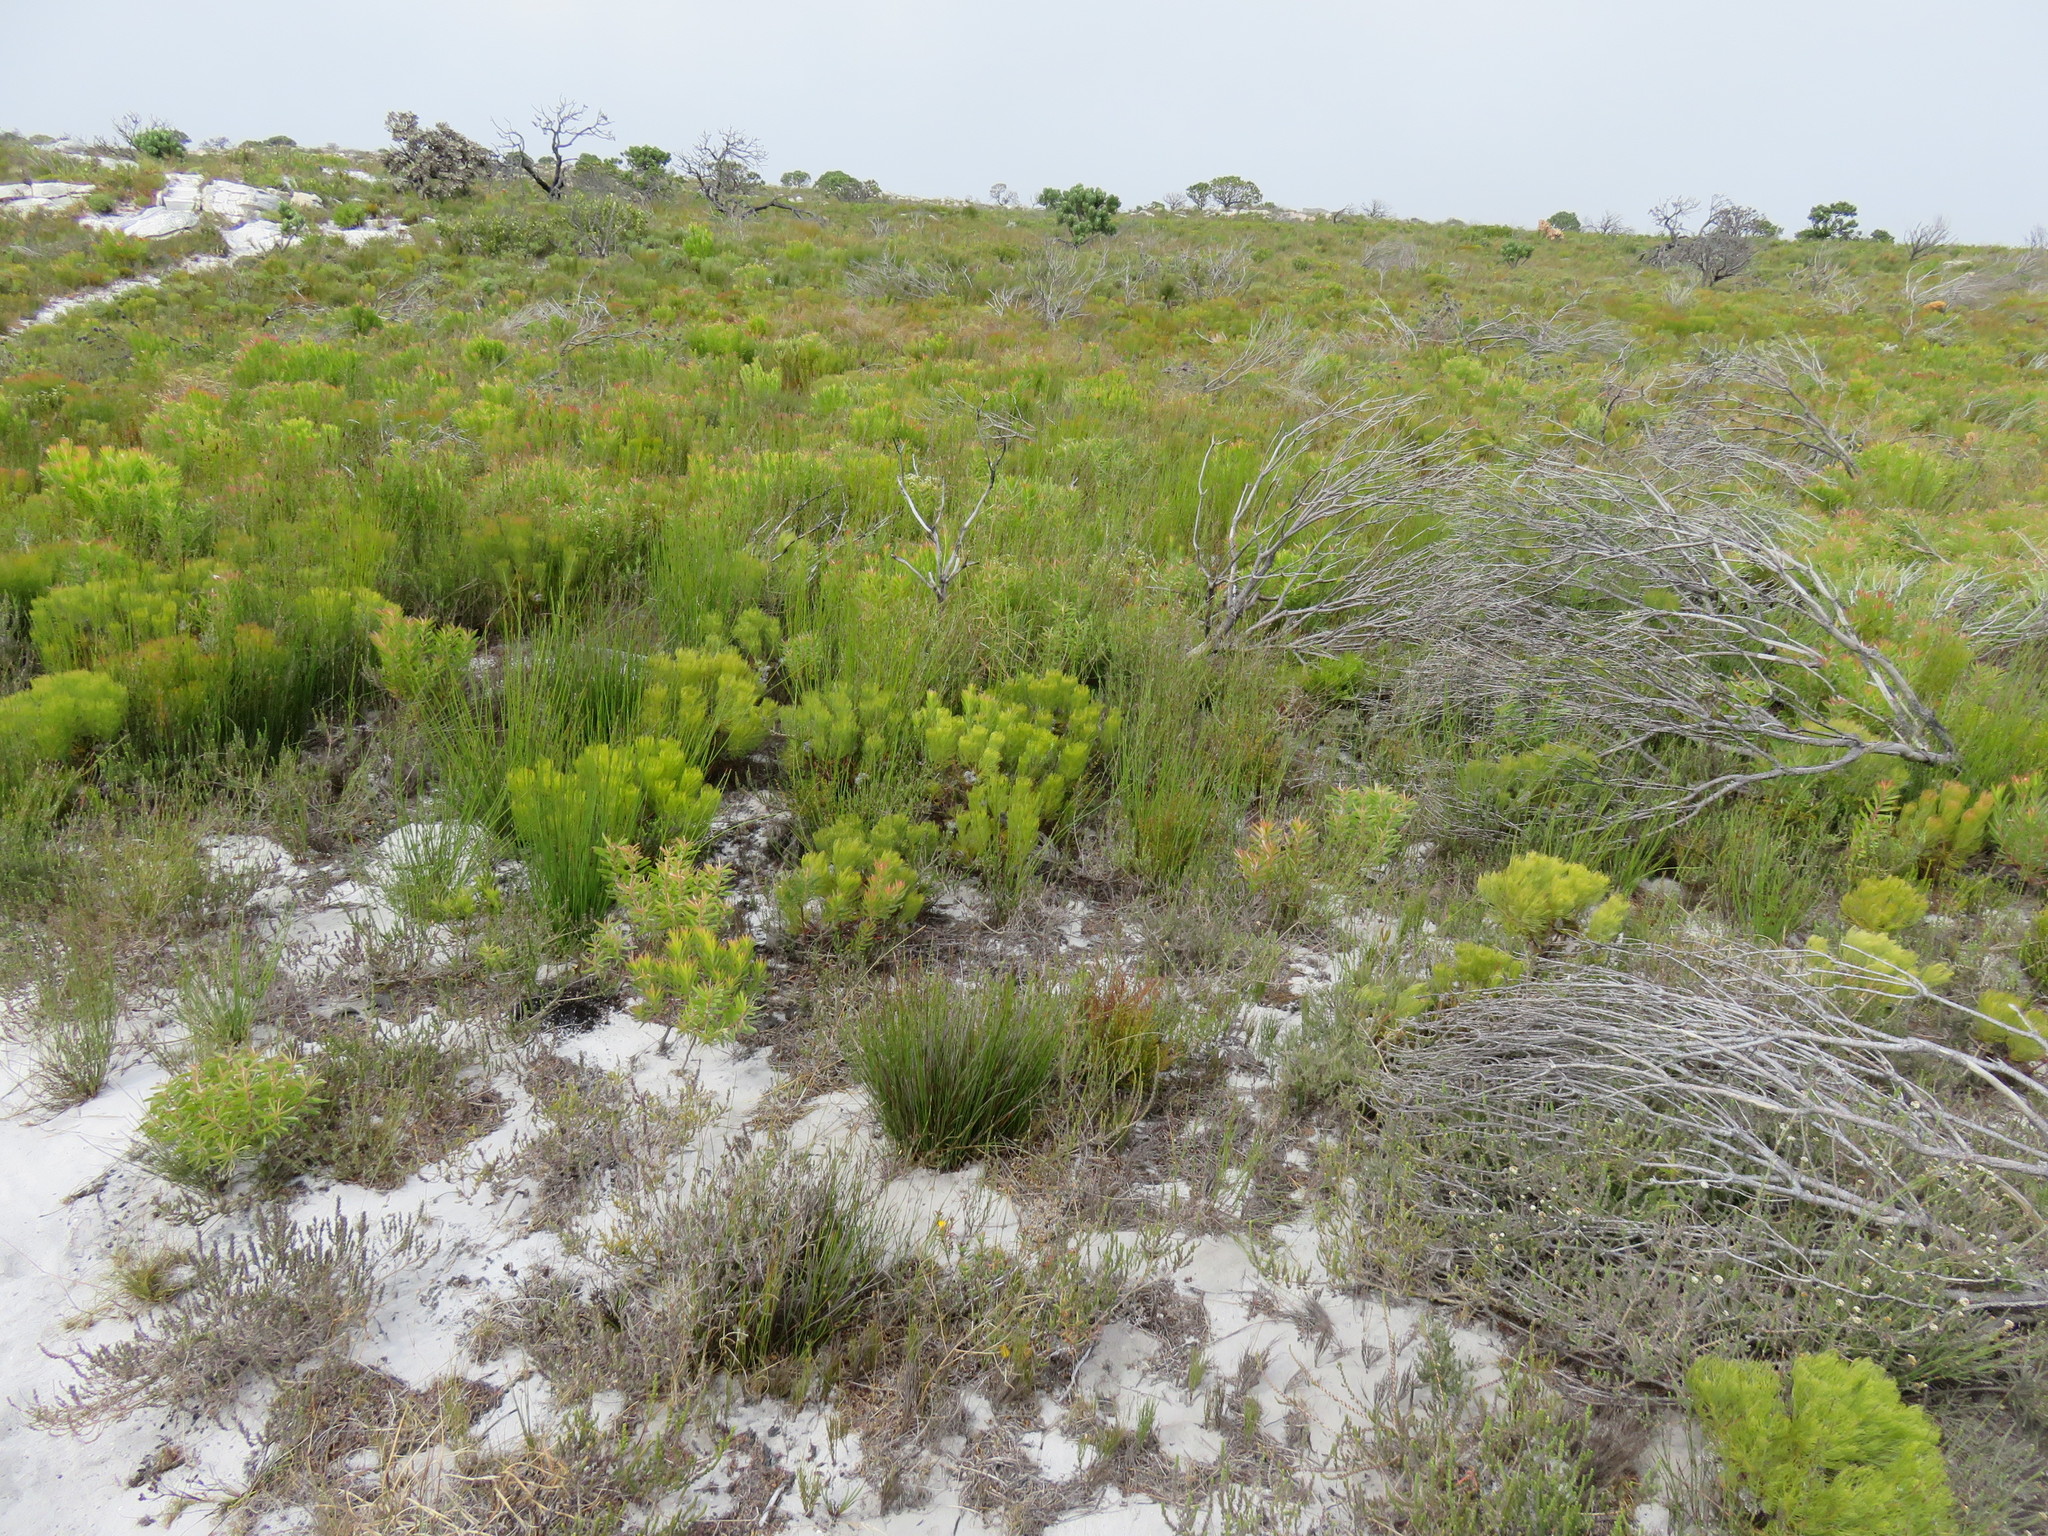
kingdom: Plantae
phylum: Tracheophyta
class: Magnoliopsida
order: Proteales
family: Proteaceae
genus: Serruria
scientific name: Serruria glomerata
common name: Cluster spiderhead
